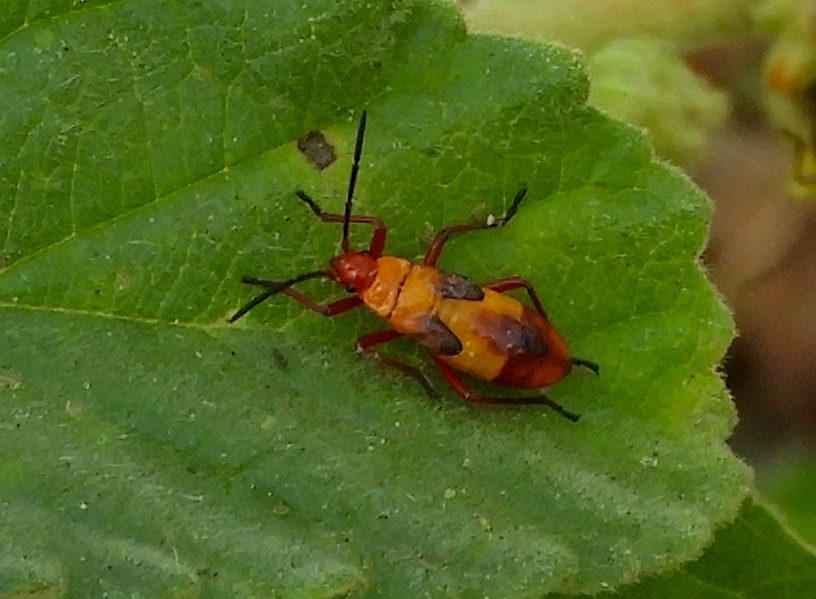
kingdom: Animalia
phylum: Arthropoda
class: Insecta
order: Hemiptera
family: Lygaeidae
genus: Oncopeltus
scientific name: Oncopeltus guttaloides
